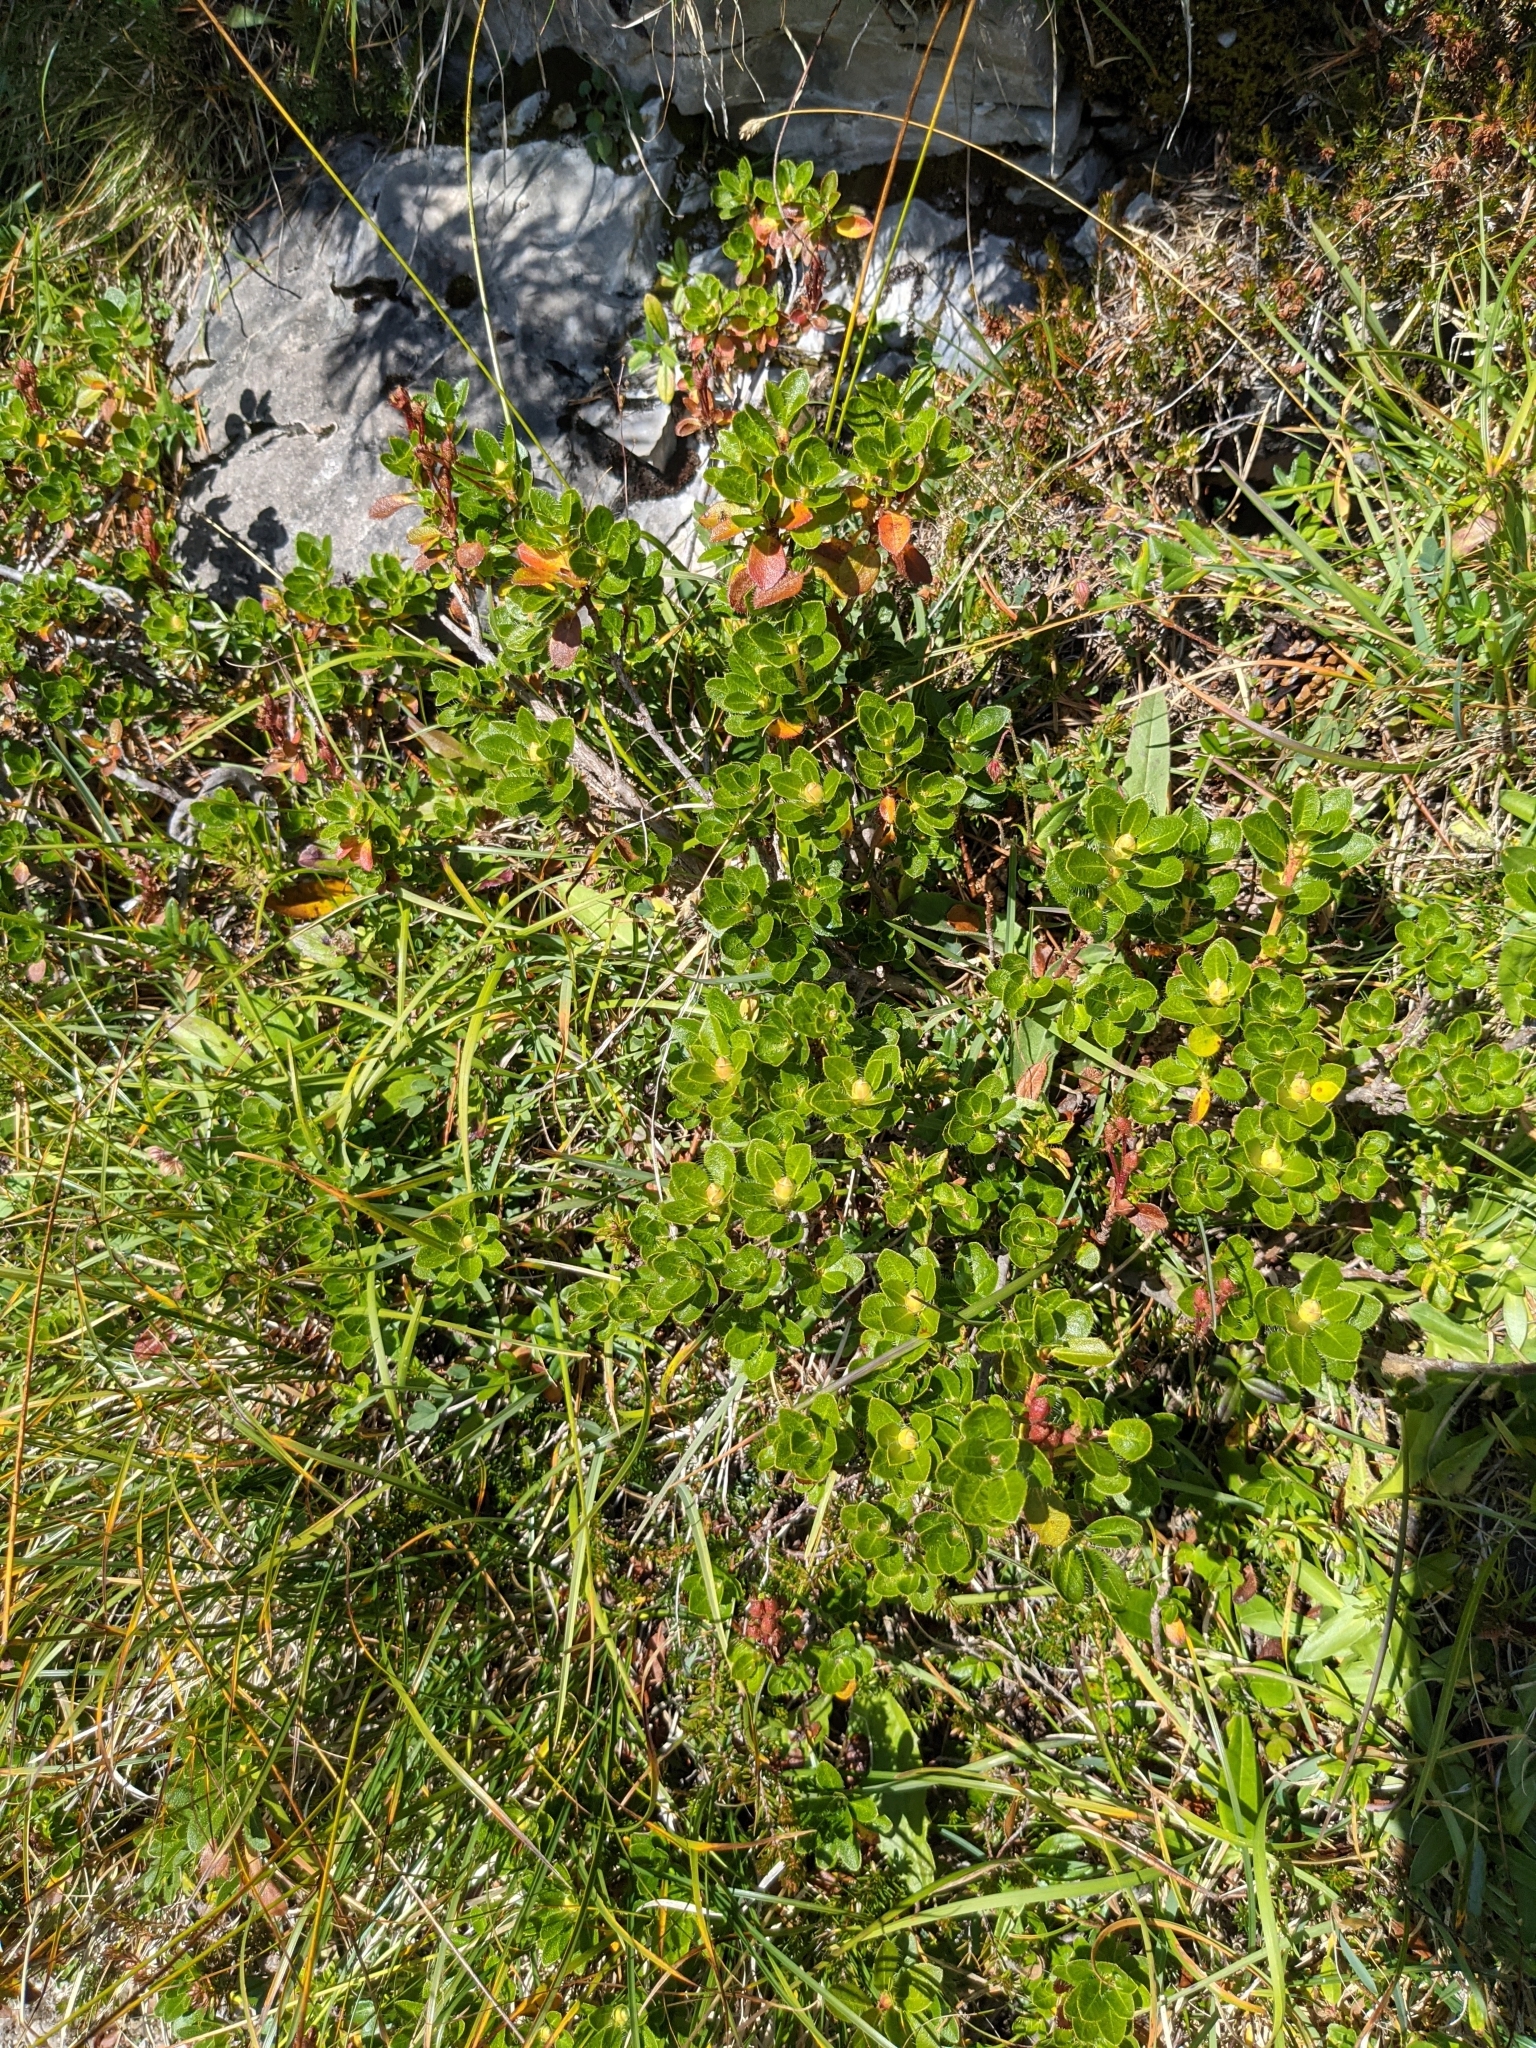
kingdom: Plantae
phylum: Tracheophyta
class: Magnoliopsida
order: Ericales
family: Ericaceae
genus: Rhododendron
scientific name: Rhododendron hirsutum
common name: Hairy alpenrose
